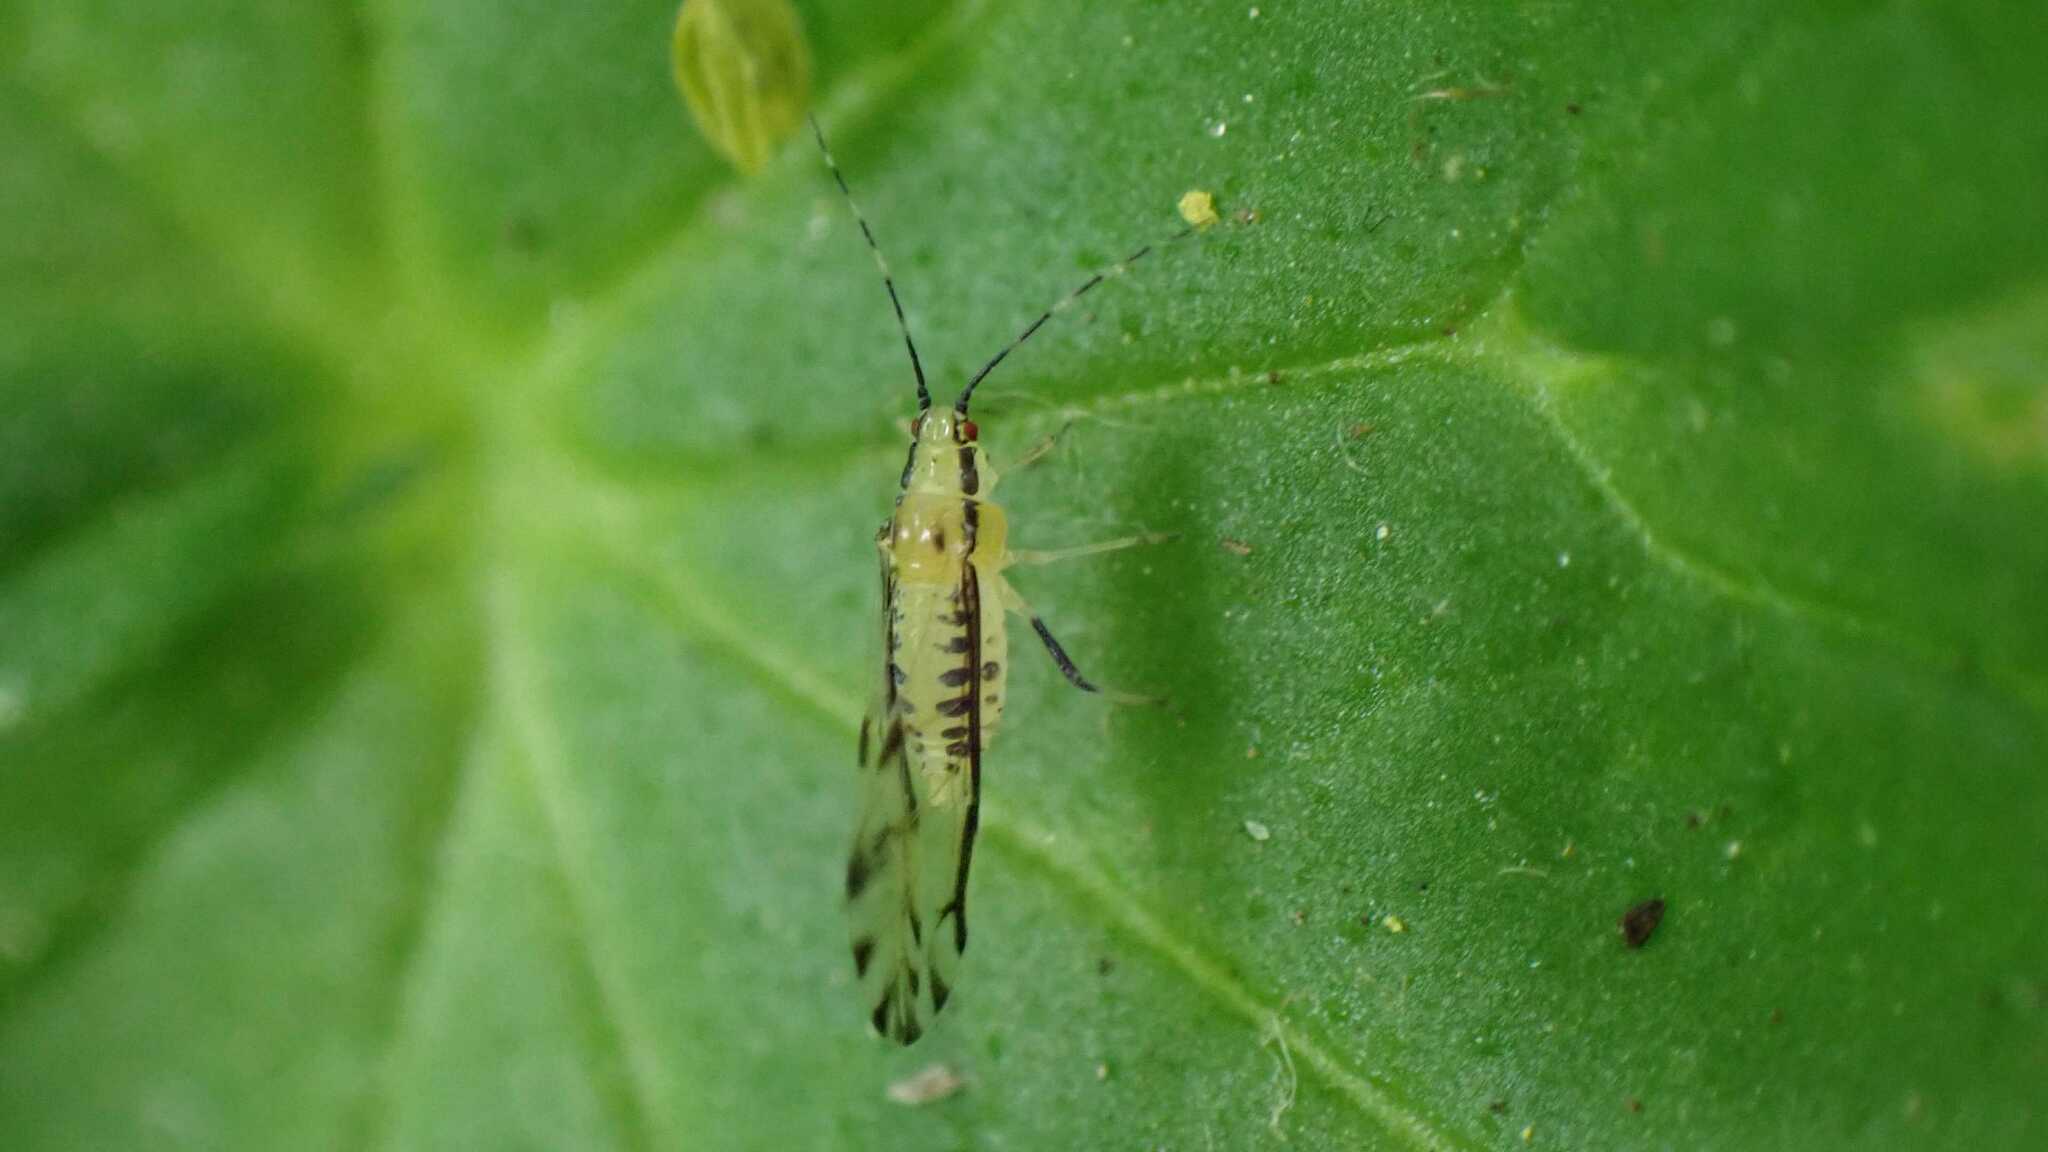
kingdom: Animalia
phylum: Arthropoda
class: Insecta
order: Hemiptera
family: Aphididae
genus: Eucallipterus
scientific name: Eucallipterus tiliae
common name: Aphid
